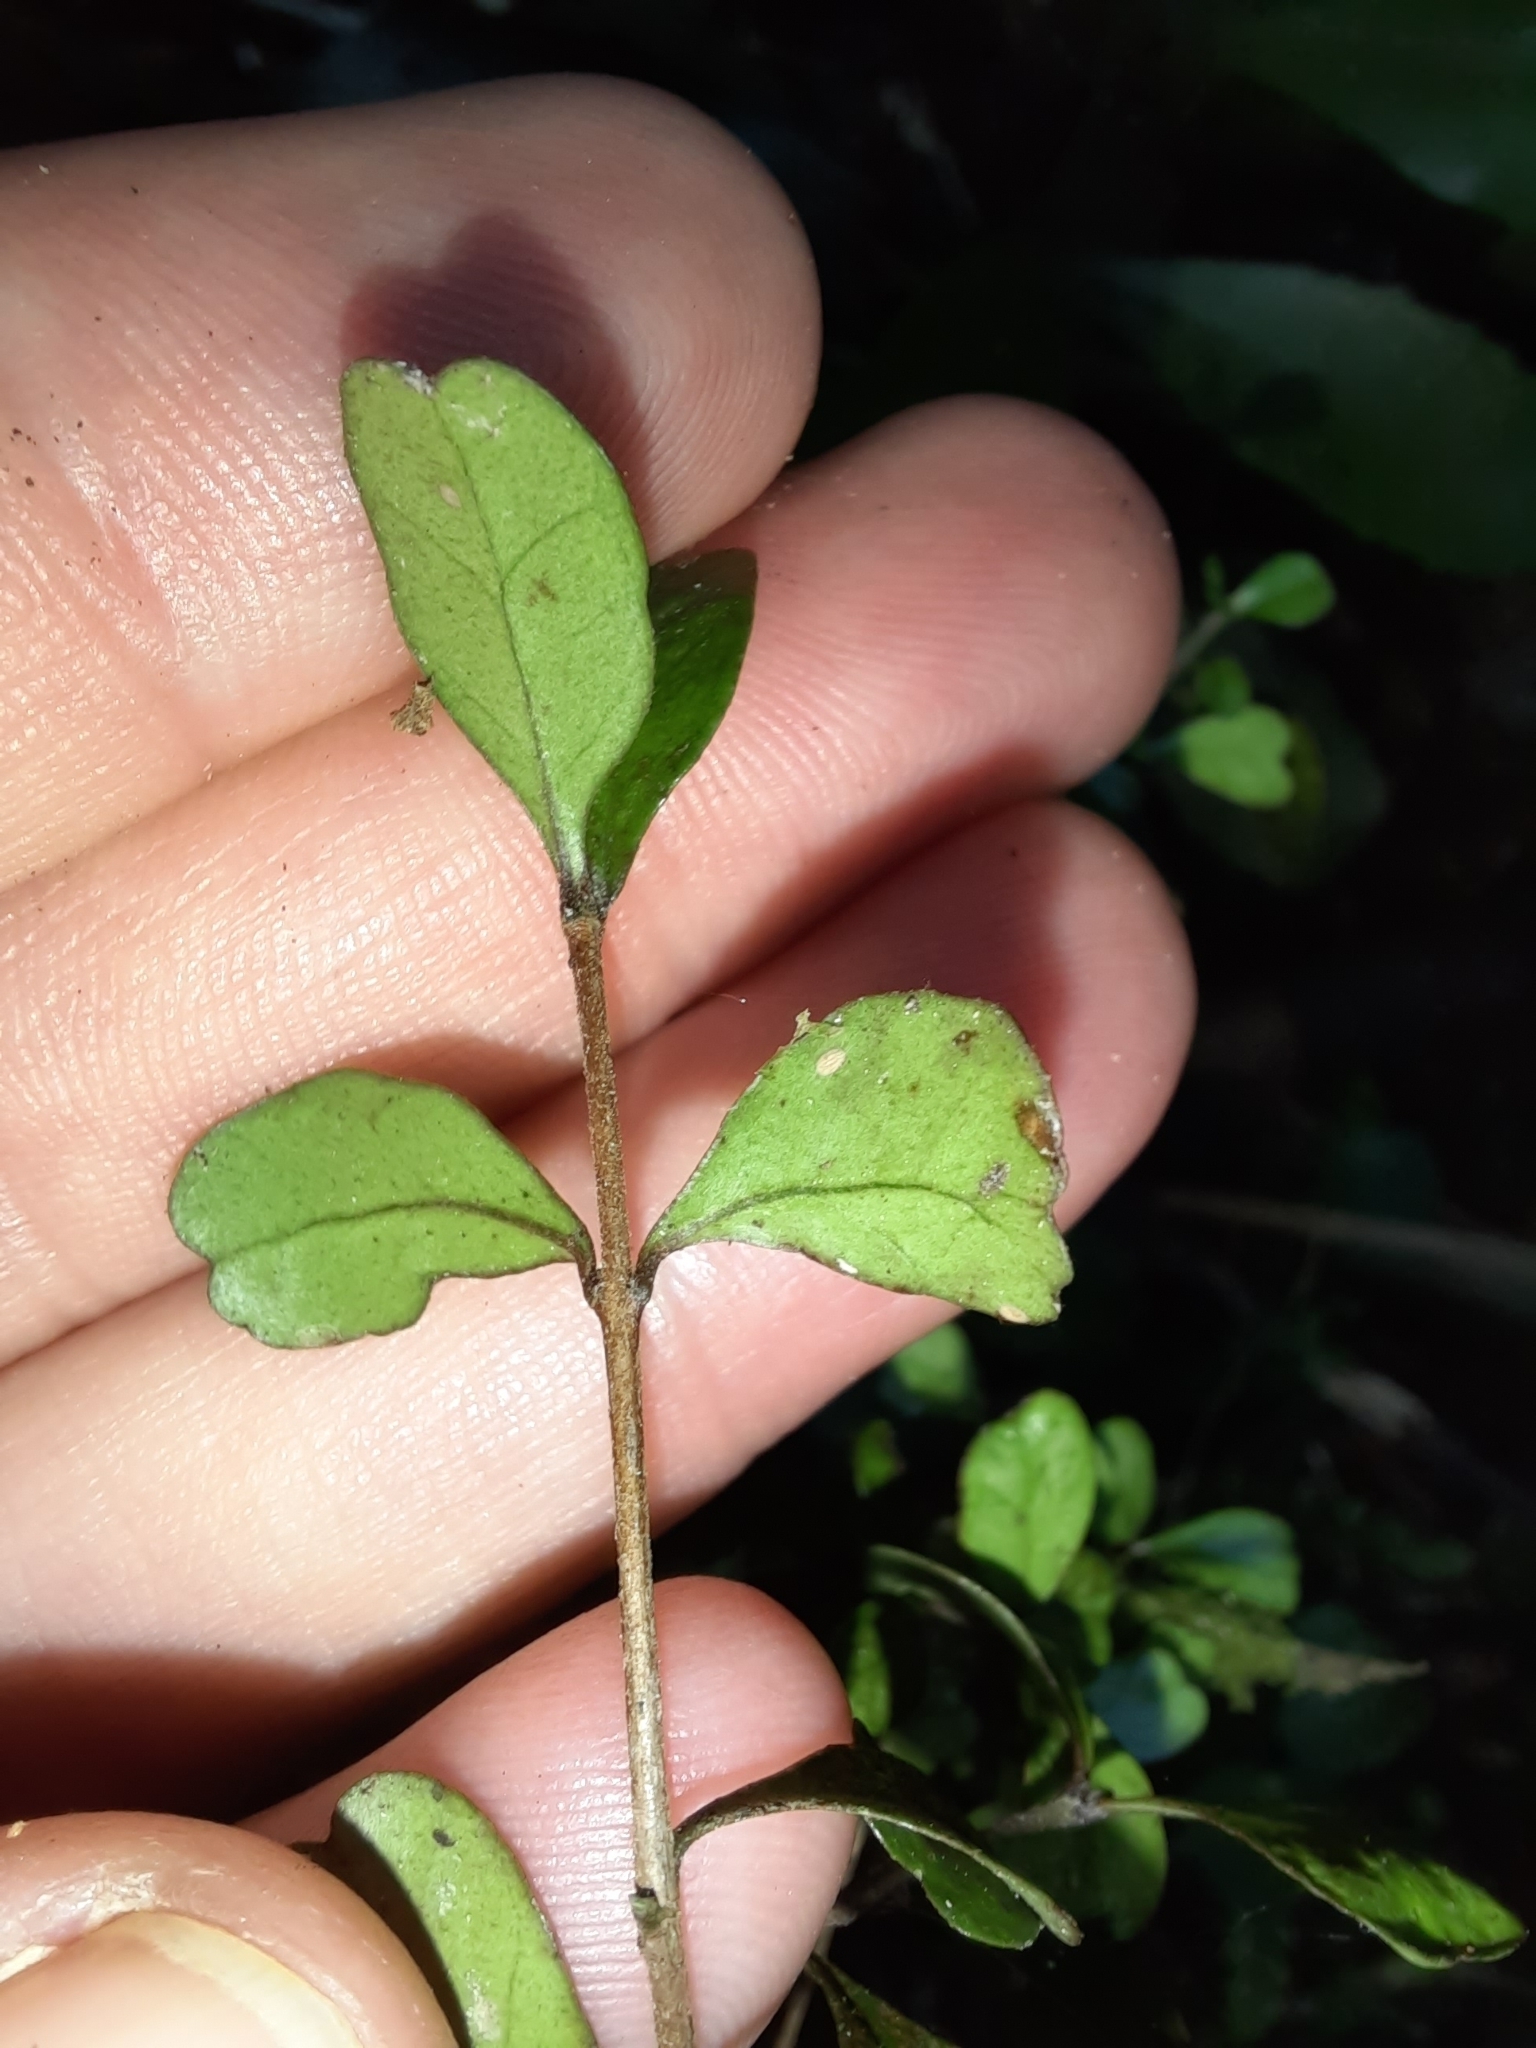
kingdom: Plantae
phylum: Tracheophyta
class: Magnoliopsida
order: Myrtales
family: Myrtaceae
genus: Lophomyrtus
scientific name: Lophomyrtus obcordata
